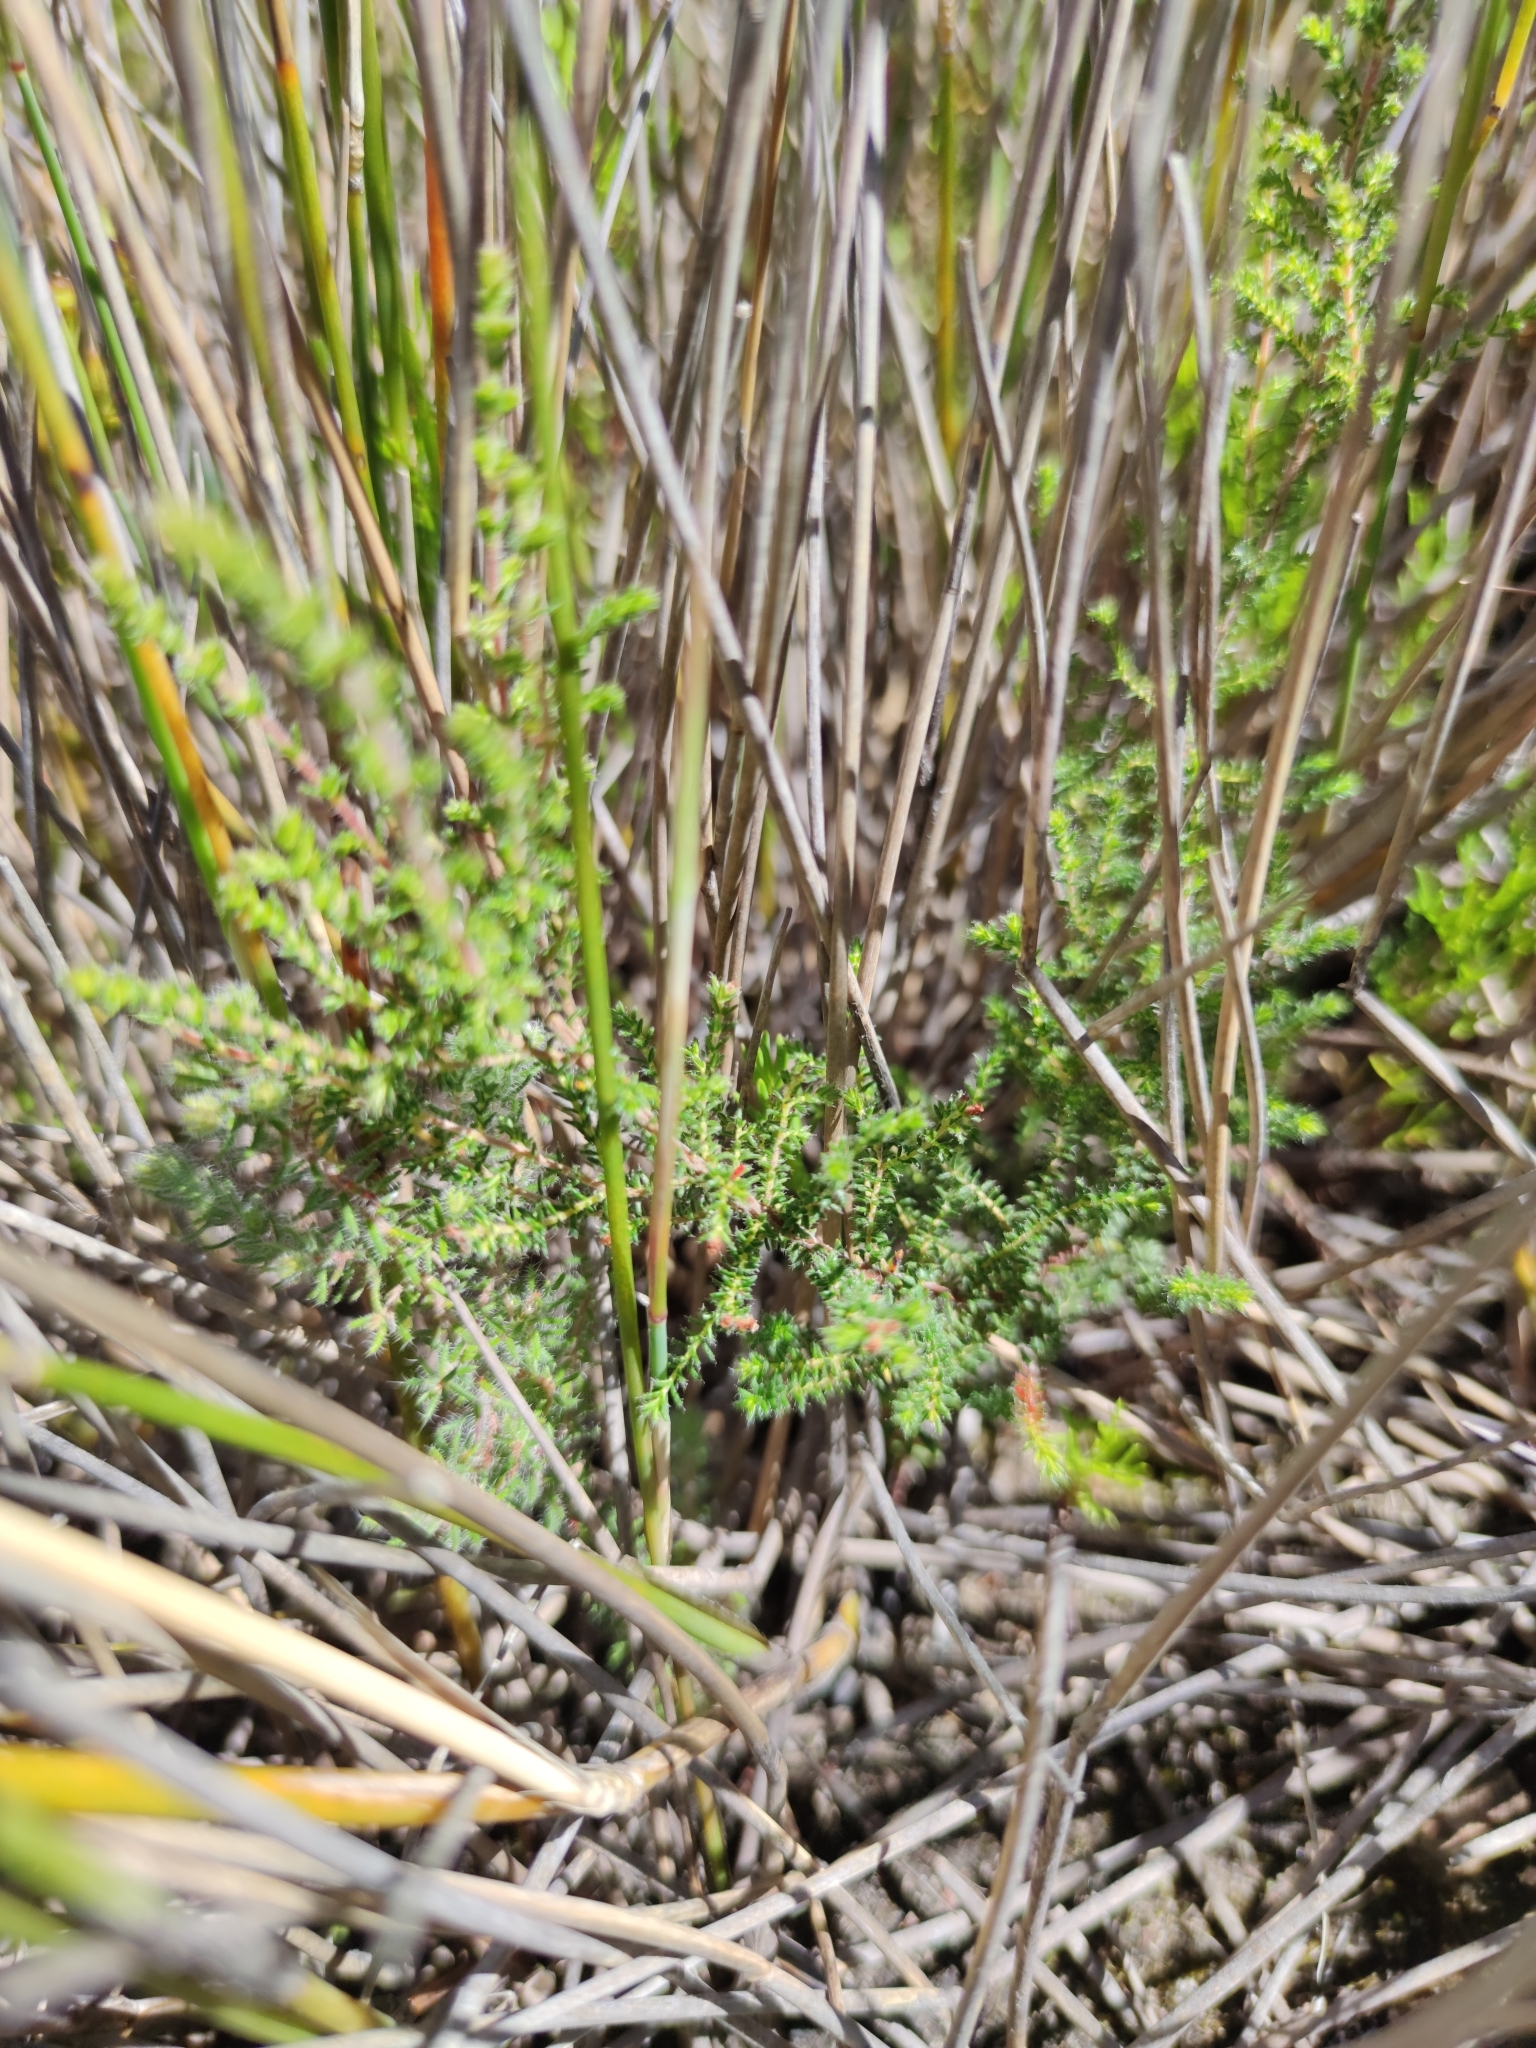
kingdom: Plantae
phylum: Tracheophyta
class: Magnoliopsida
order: Ericales
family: Ericaceae
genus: Erica
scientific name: Erica rigidula
